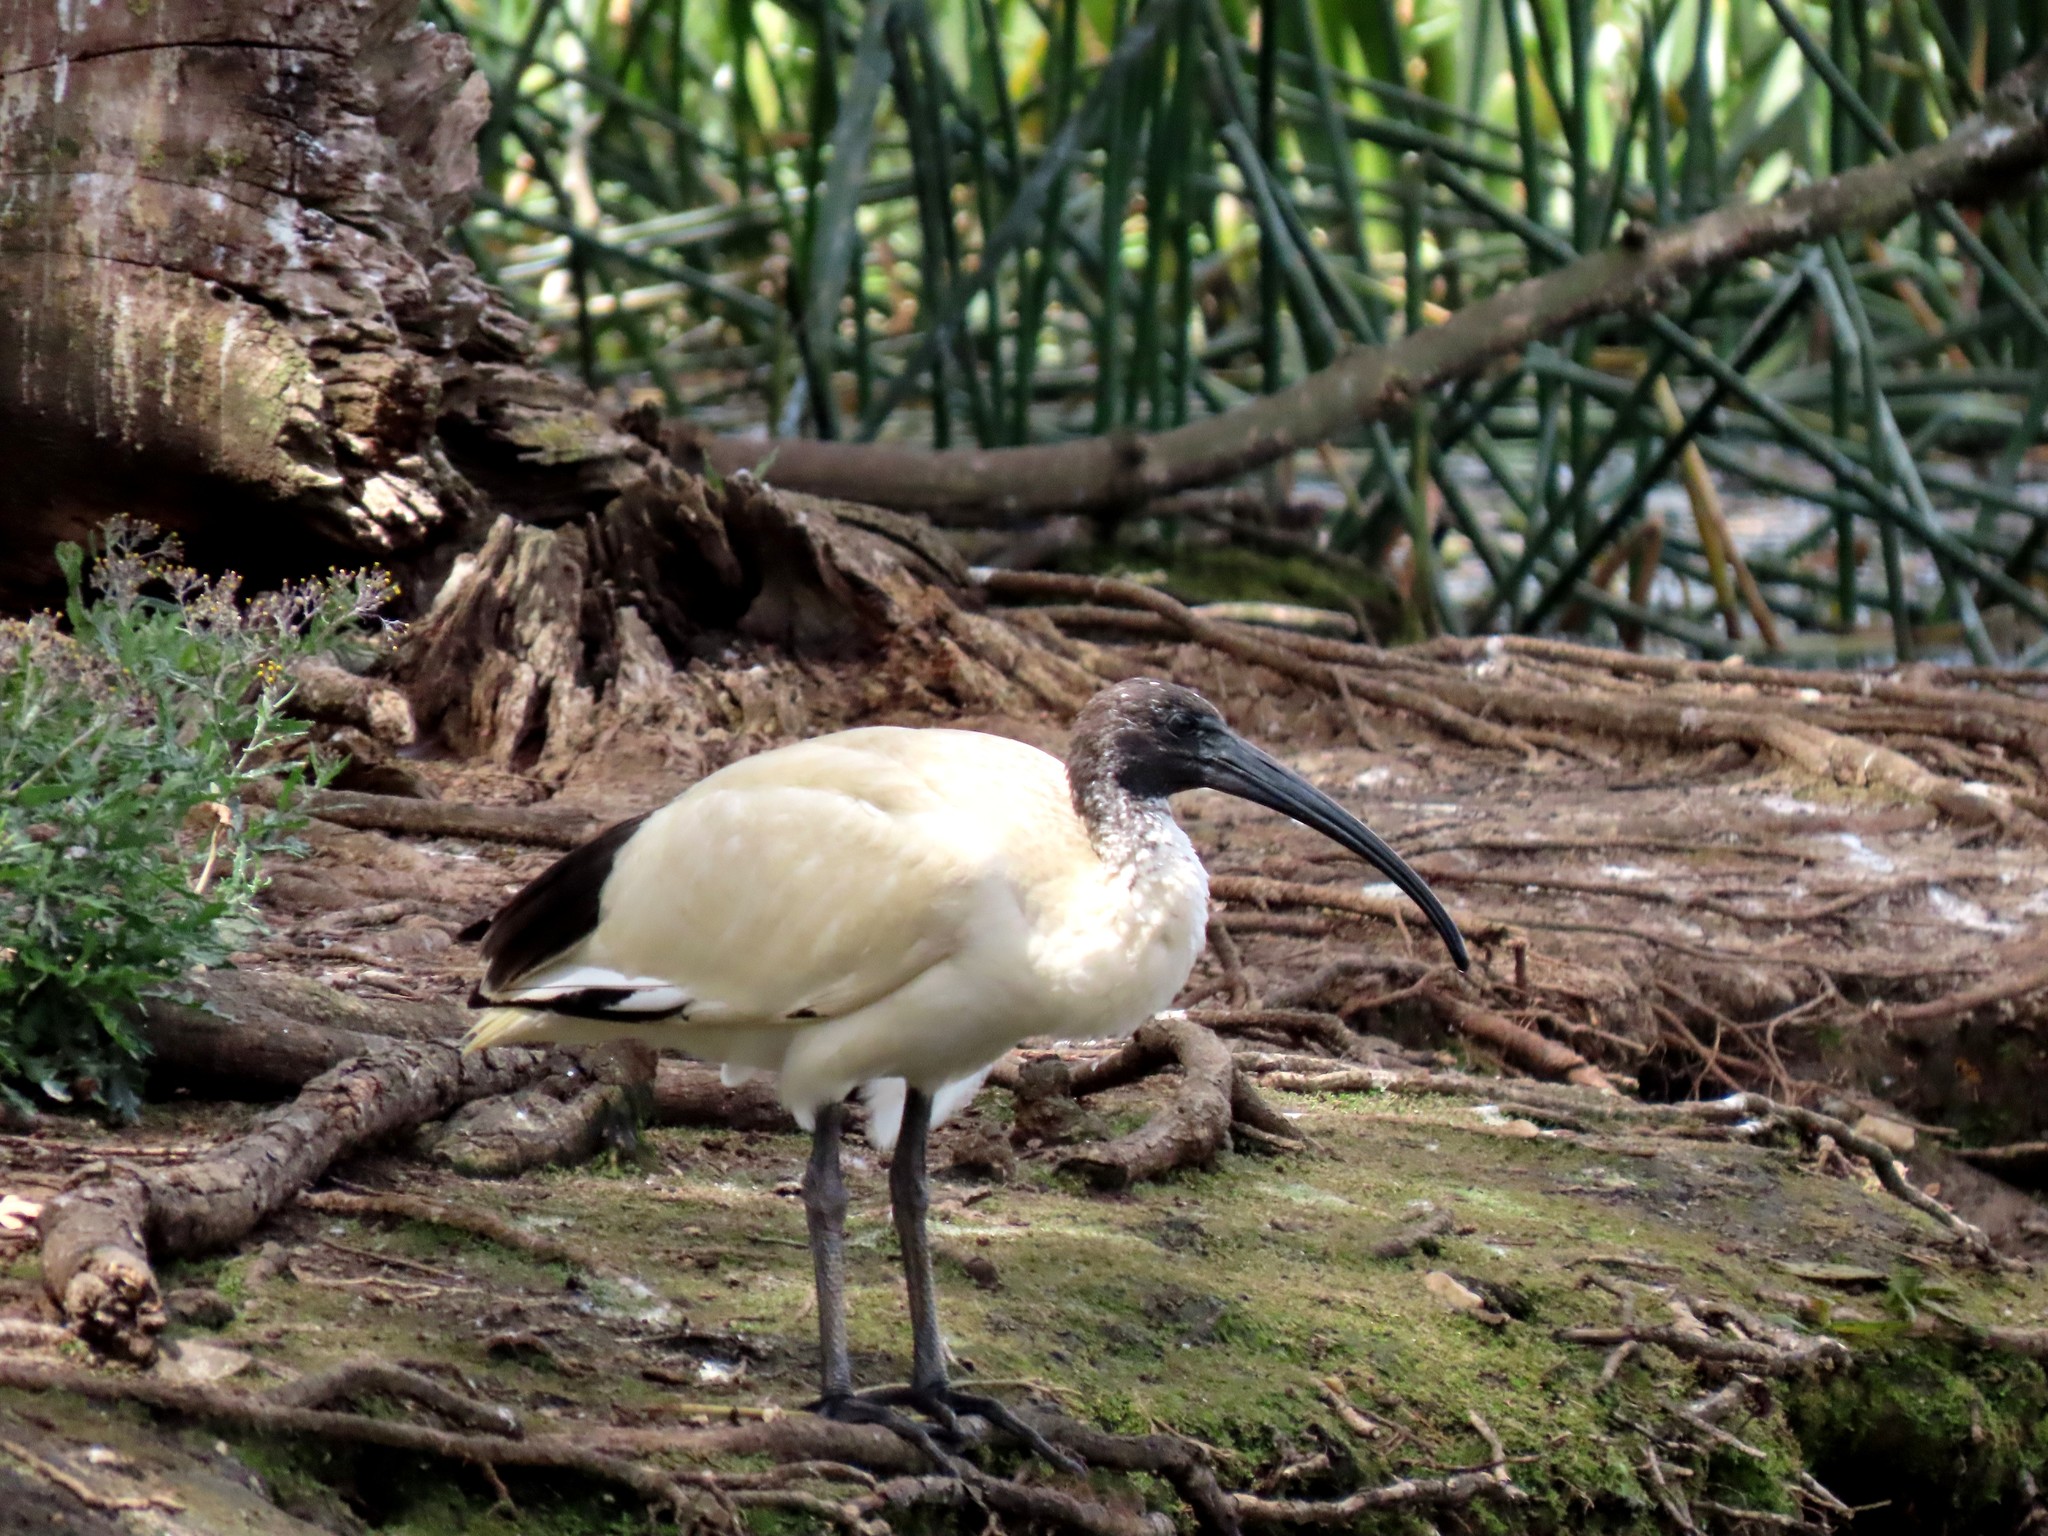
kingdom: Animalia
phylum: Chordata
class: Aves
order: Pelecaniformes
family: Threskiornithidae
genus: Threskiornis
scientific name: Threskiornis molucca
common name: Australian white ibis
